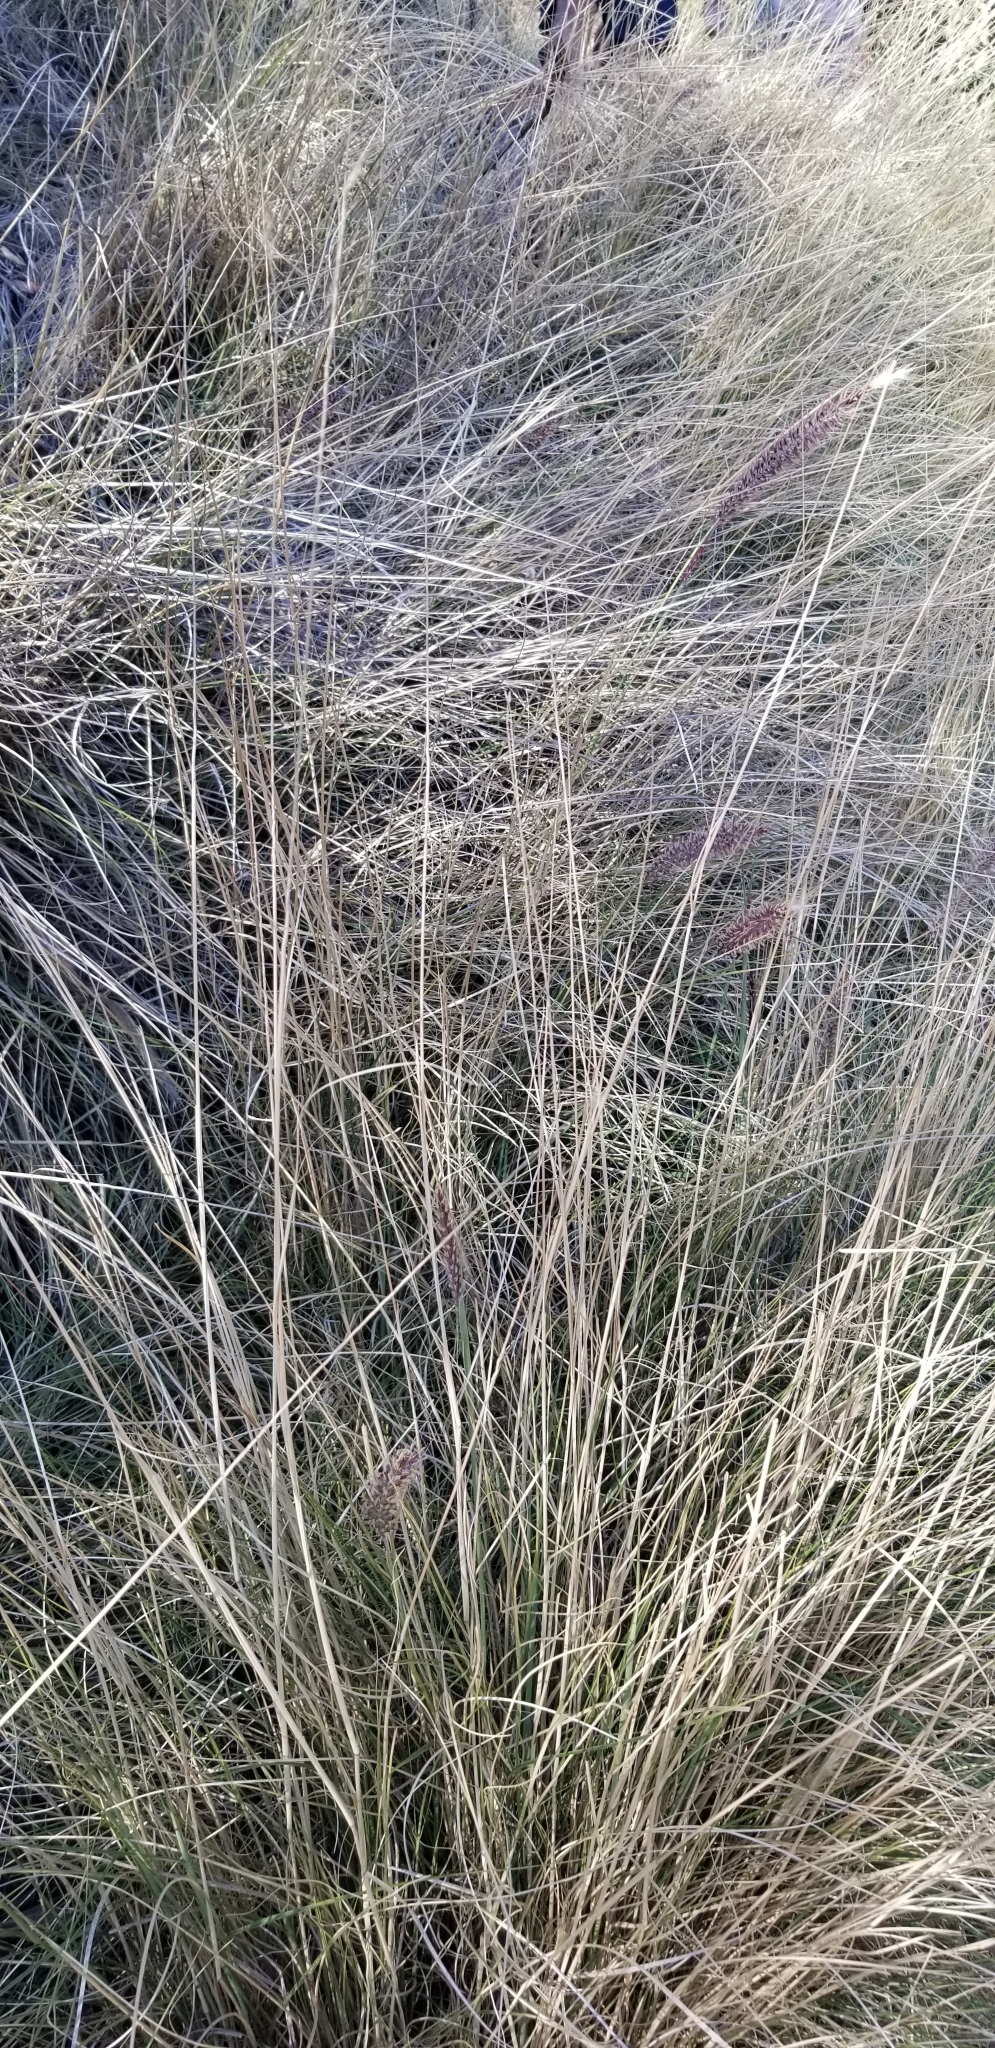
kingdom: Plantae
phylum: Tracheophyta
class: Liliopsida
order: Poales
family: Poaceae
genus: Cenchrus
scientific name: Cenchrus setaceus
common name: Crimson fountaingrass
